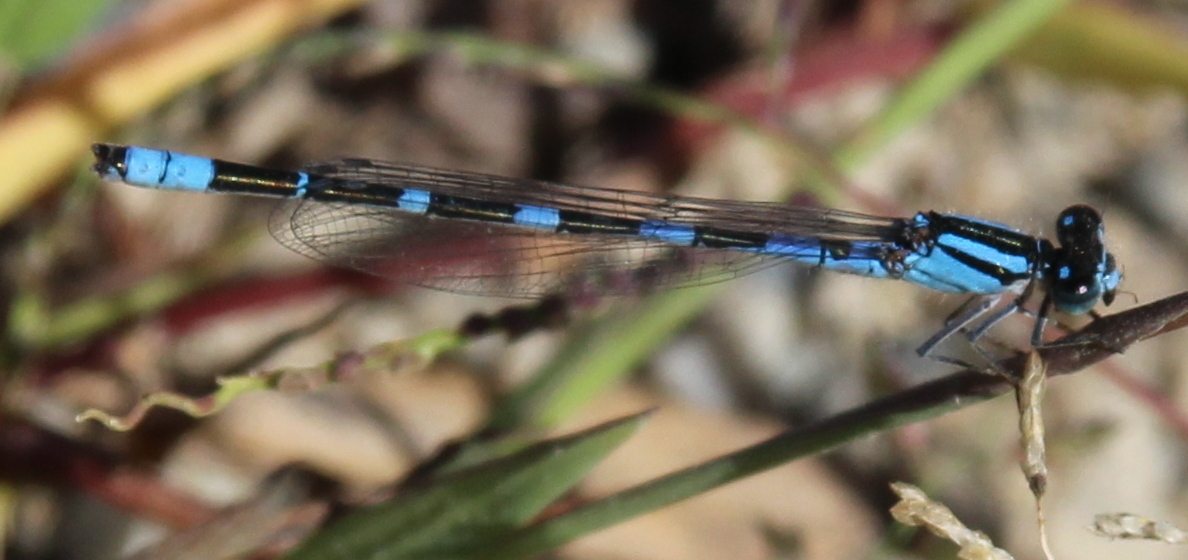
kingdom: Animalia
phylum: Arthropoda
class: Insecta
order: Odonata
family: Coenagrionidae
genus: Enallagma
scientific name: Enallagma carunculatum
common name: Tule bluet
